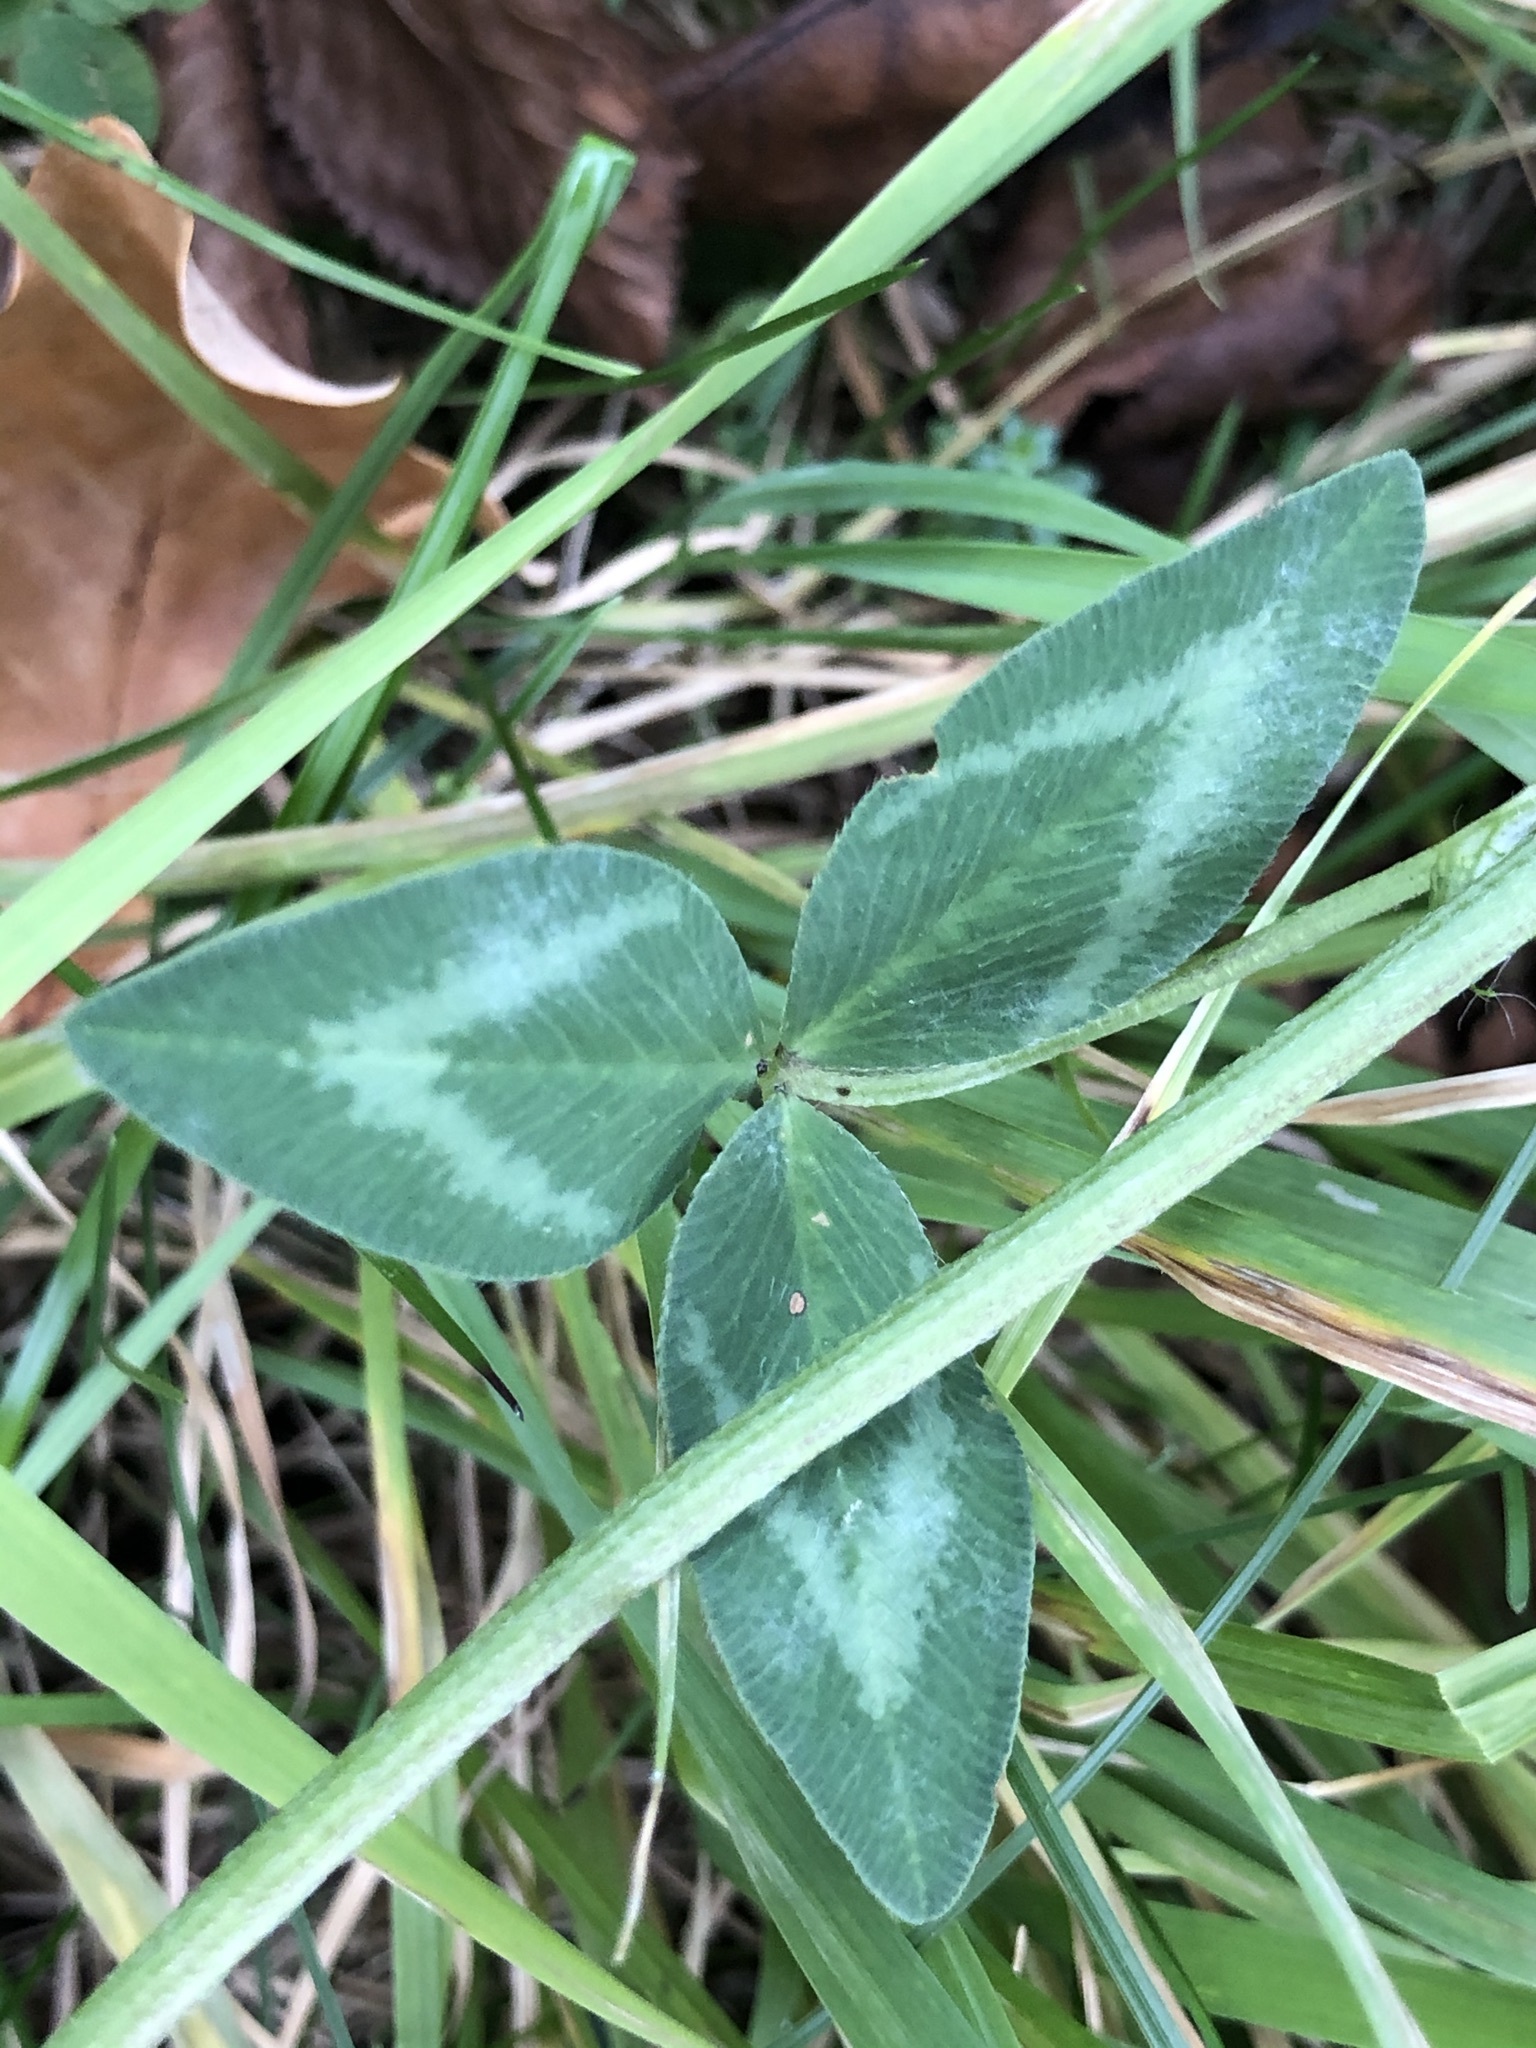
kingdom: Plantae
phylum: Tracheophyta
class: Magnoliopsida
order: Fabales
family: Fabaceae
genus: Trifolium
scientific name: Trifolium pratense
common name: Red clover
